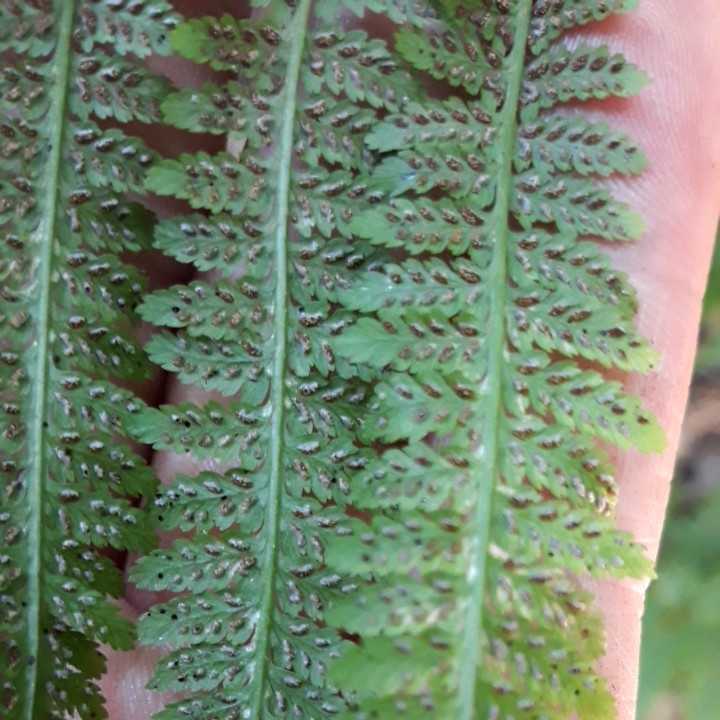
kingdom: Plantae
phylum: Tracheophyta
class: Polypodiopsida
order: Polypodiales
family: Athyriaceae
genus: Athyrium
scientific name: Athyrium filix-femina
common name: Lady fern
